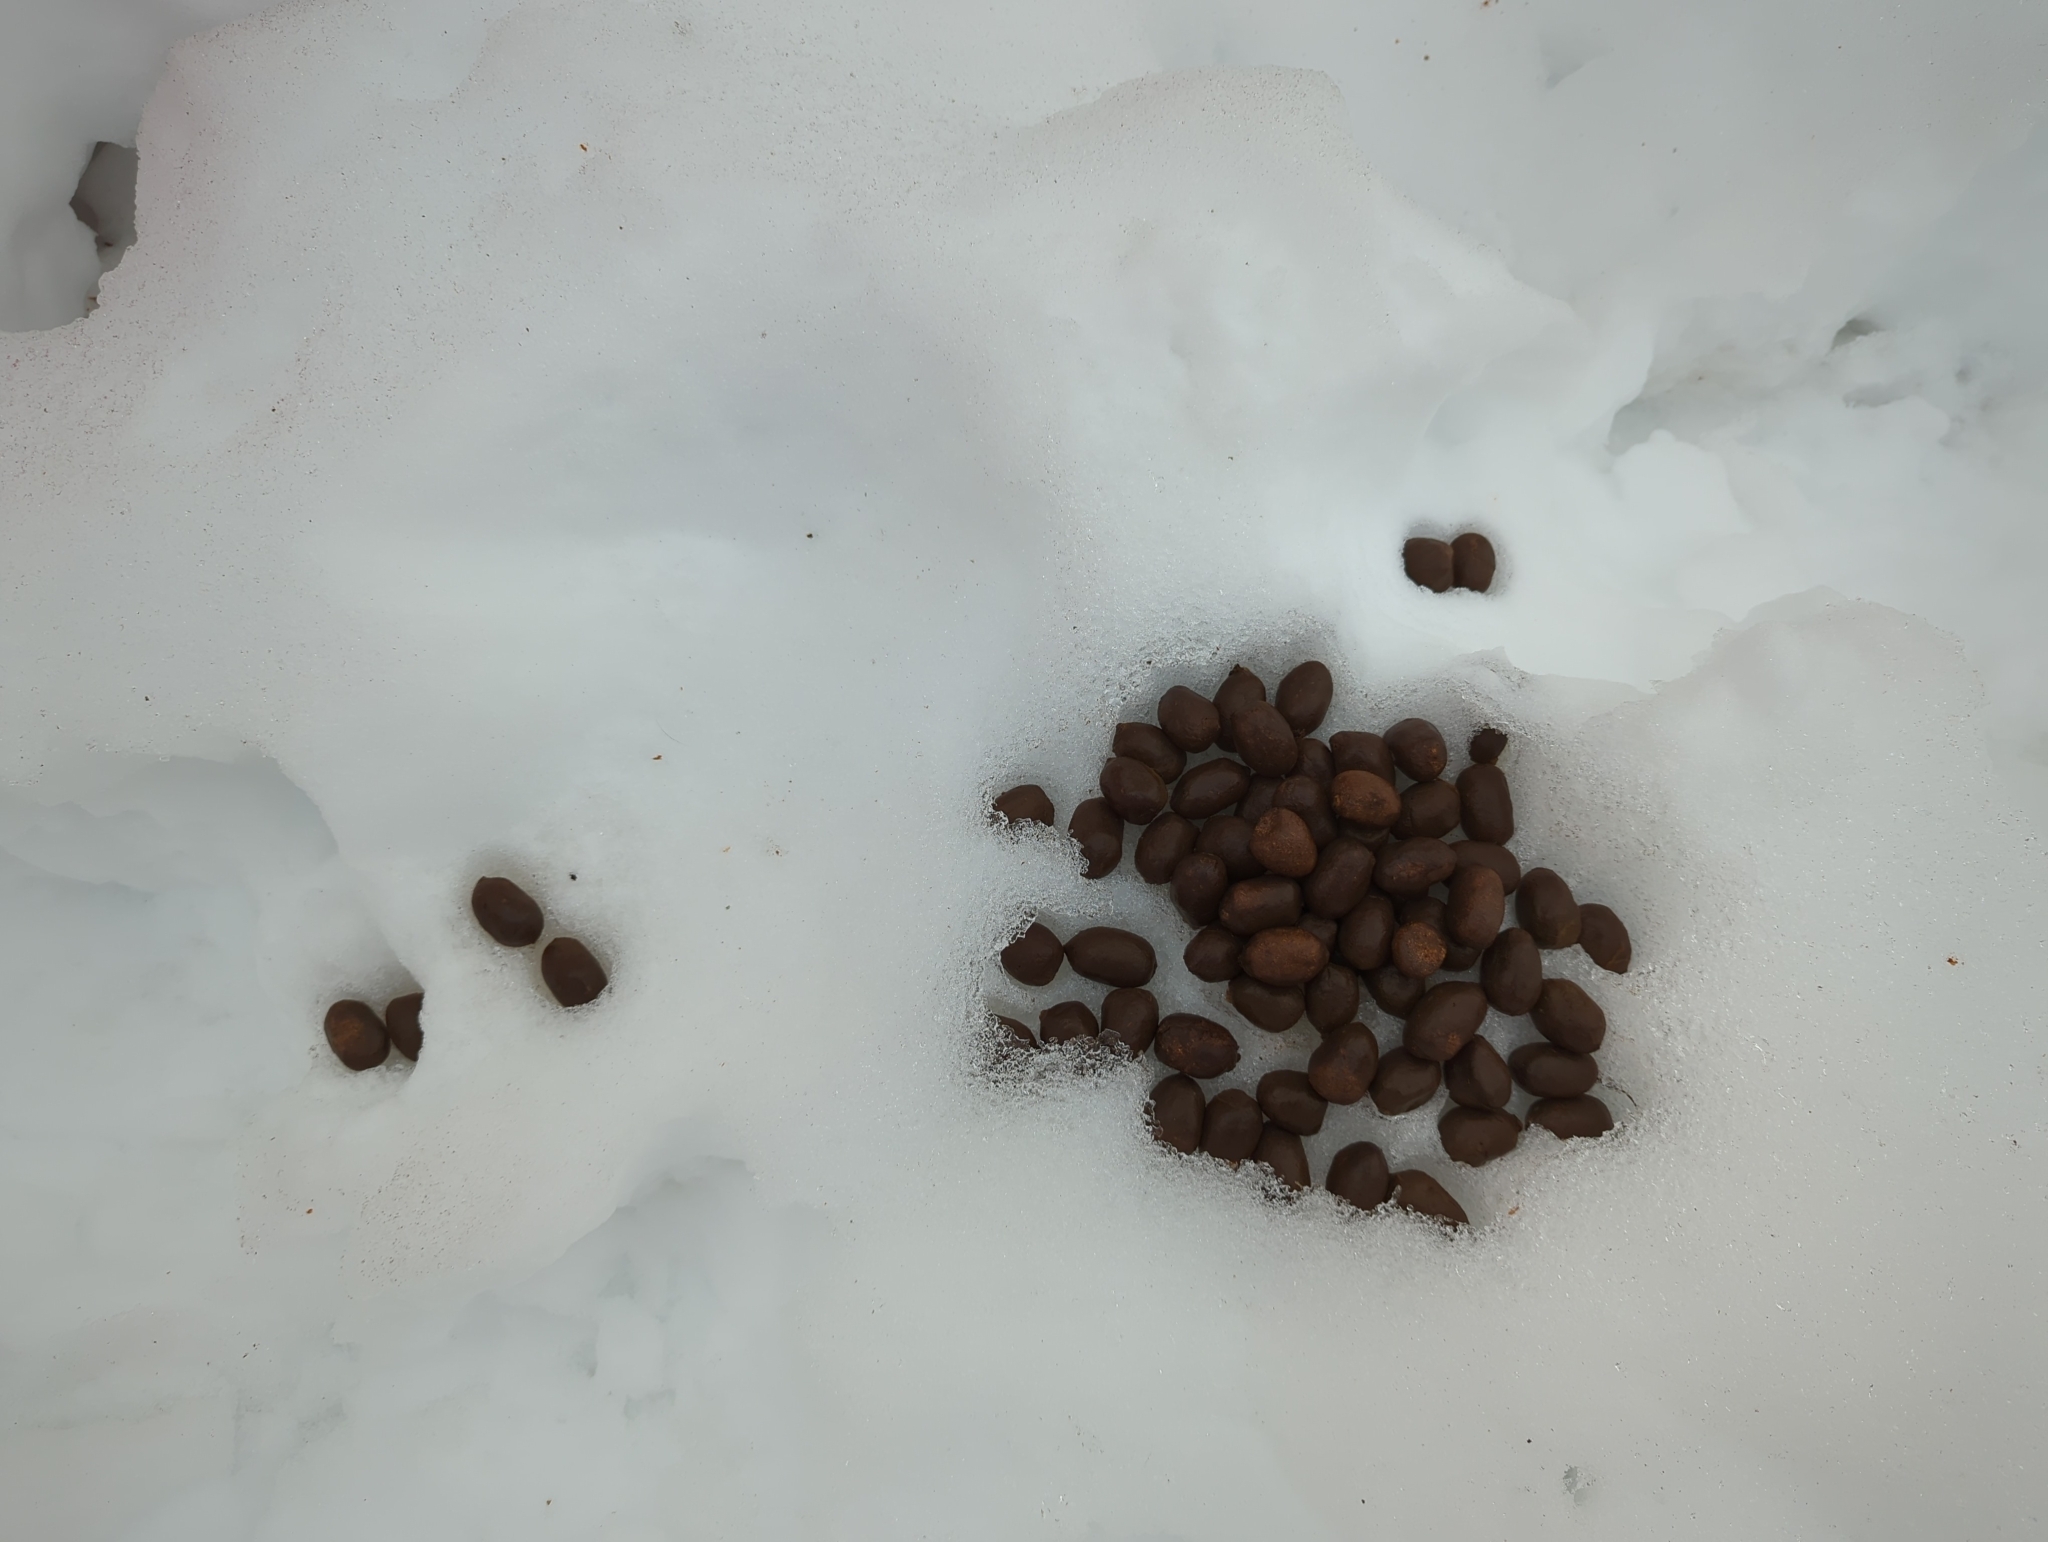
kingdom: Animalia
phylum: Chordata
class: Mammalia
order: Artiodactyla
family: Cervidae
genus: Alces
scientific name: Alces alces
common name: Moose
